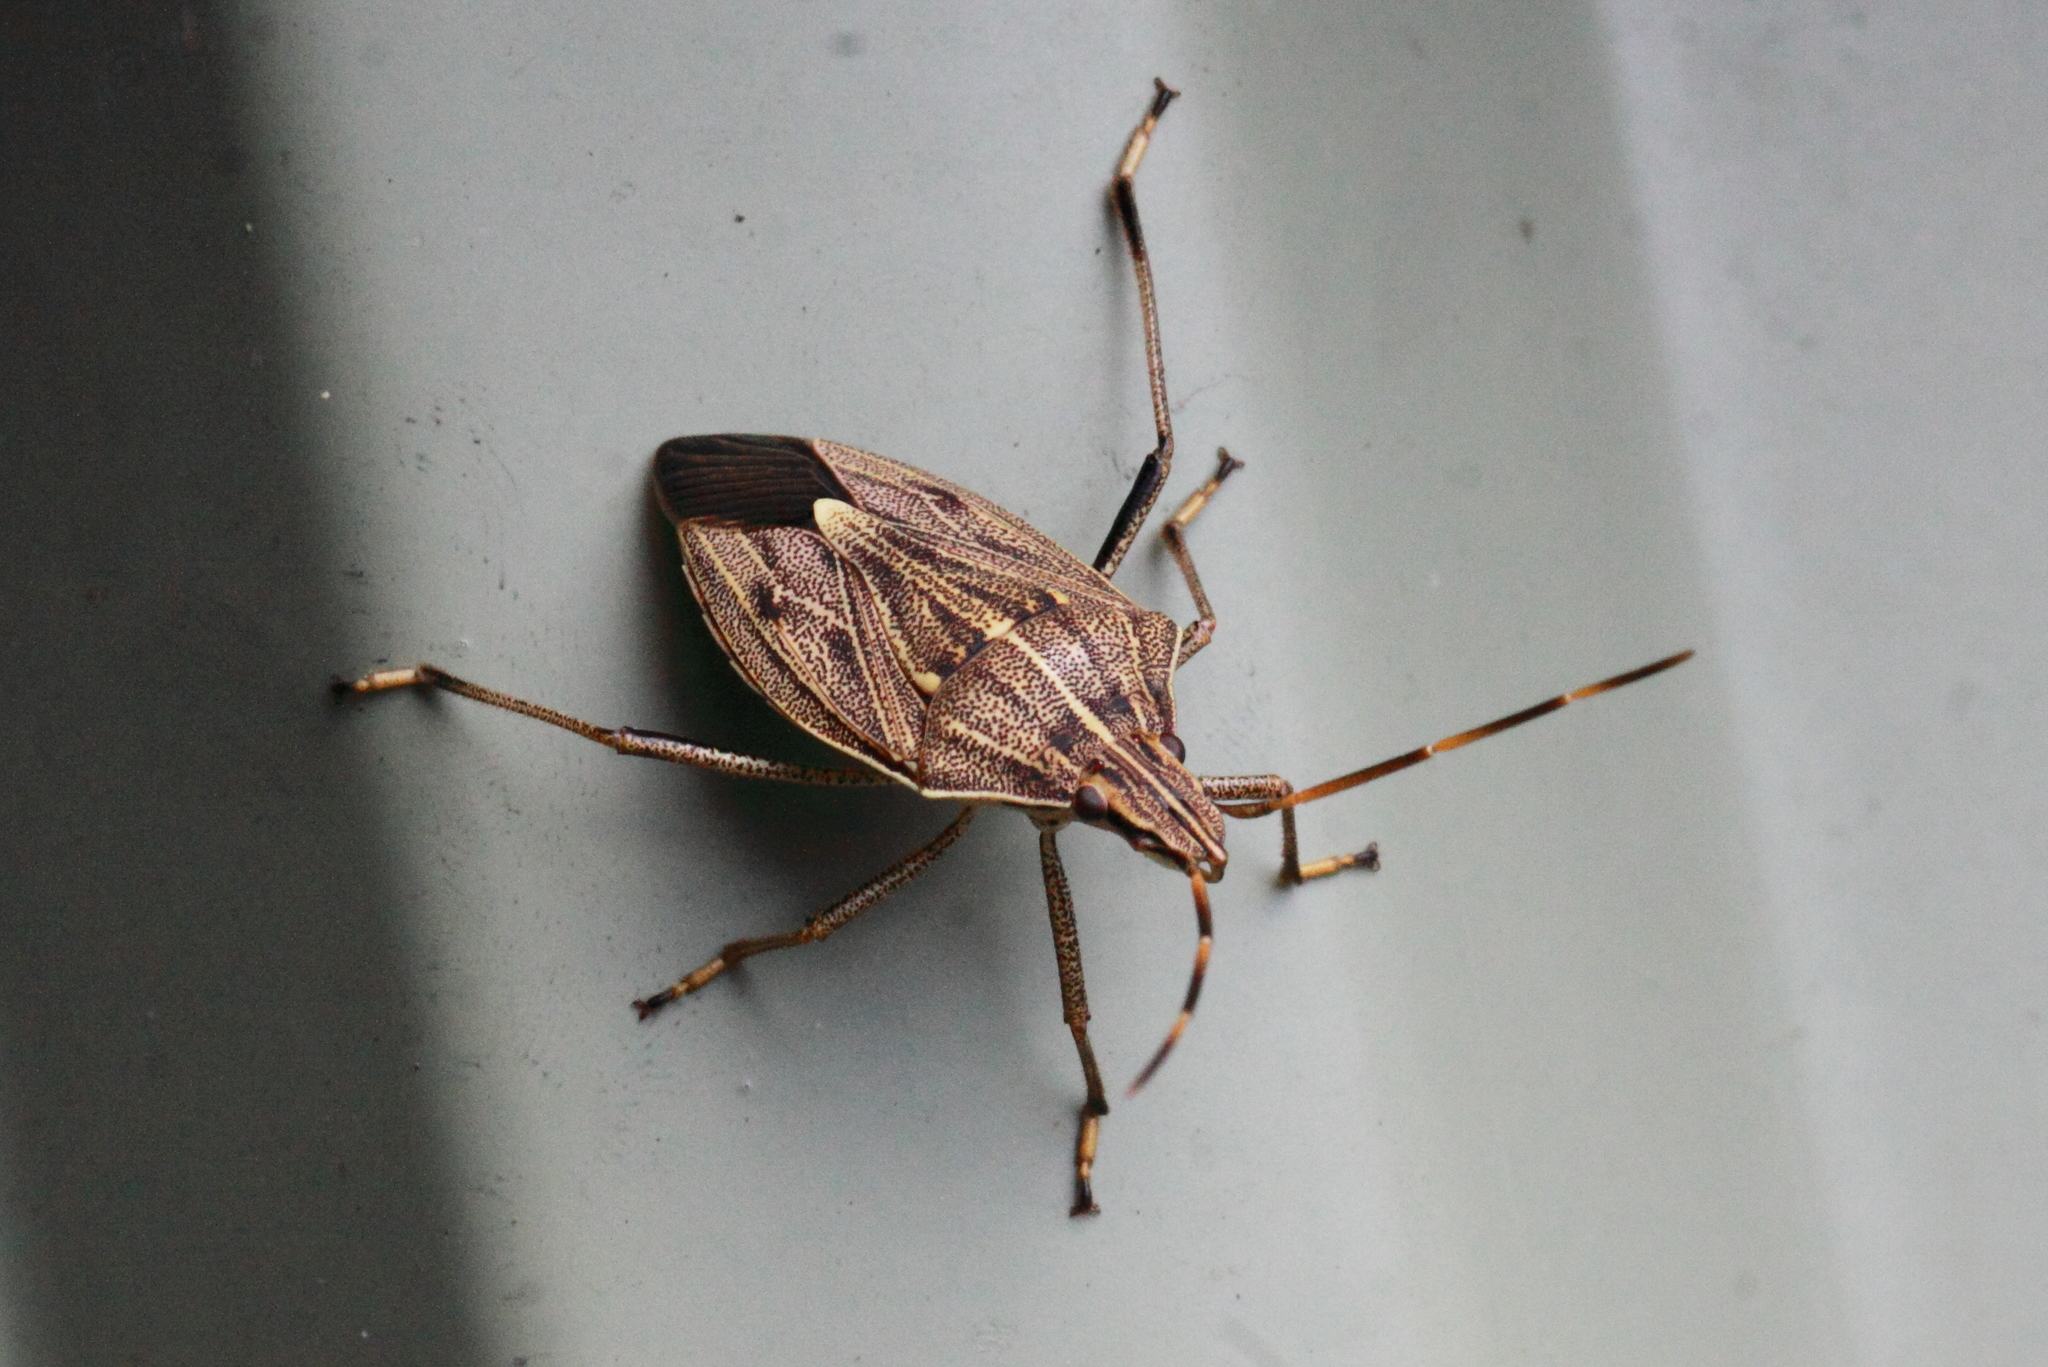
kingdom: Animalia
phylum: Arthropoda
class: Insecta
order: Hemiptera
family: Pentatomidae
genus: Poecilometis
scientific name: Poecilometis
